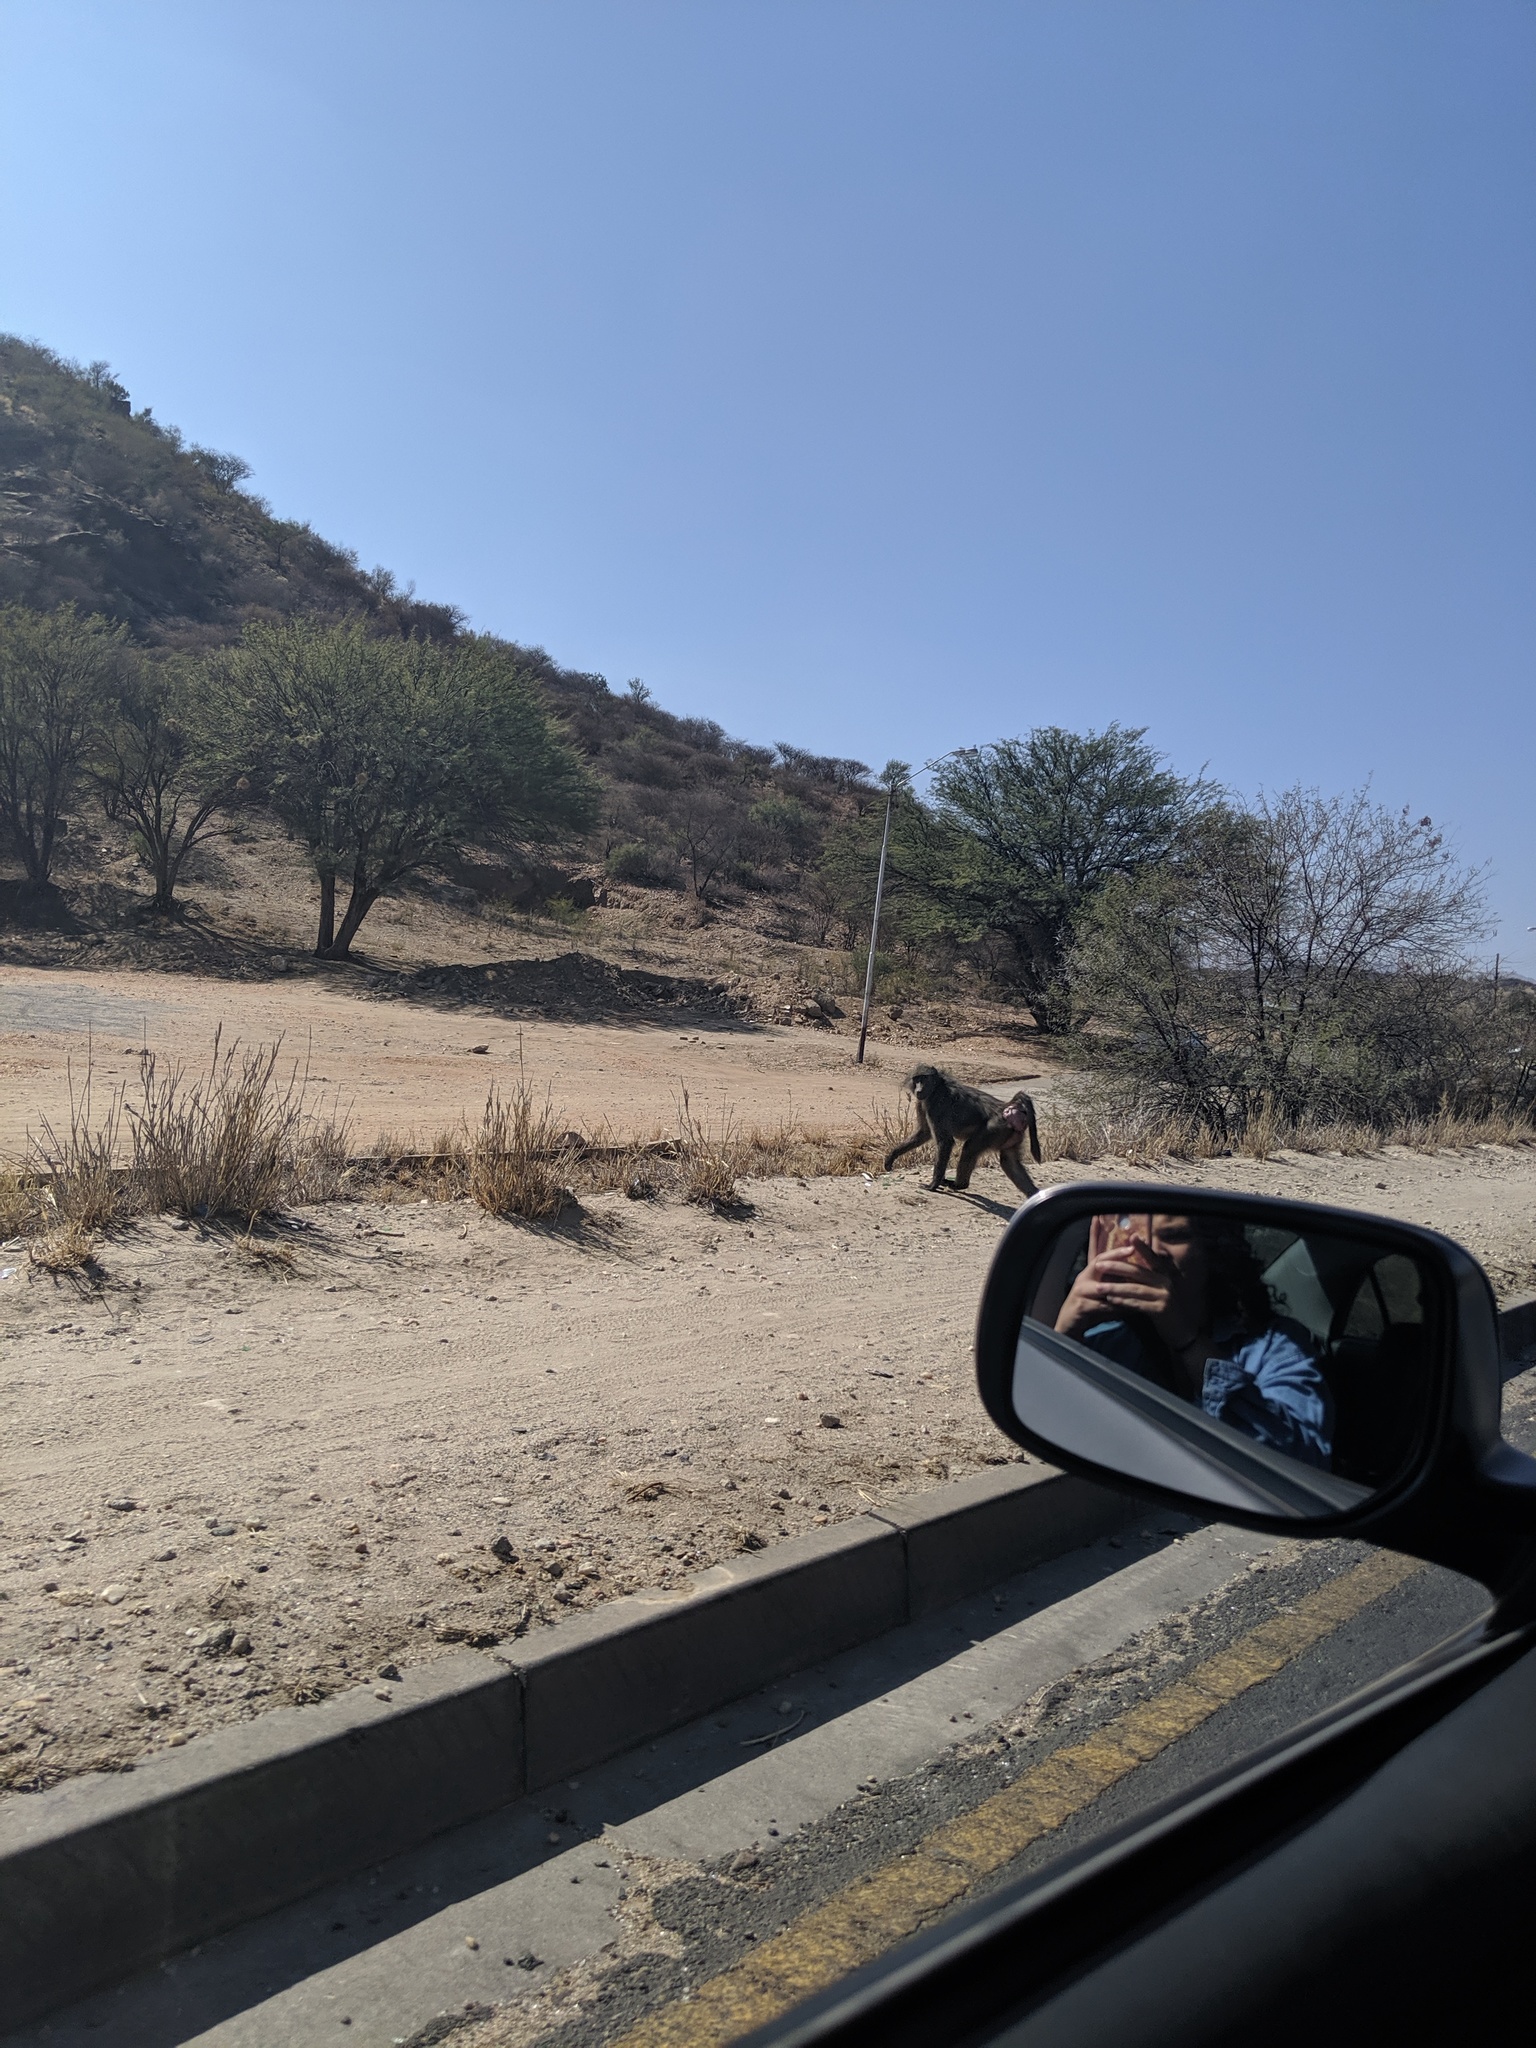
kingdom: Animalia
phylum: Chordata
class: Mammalia
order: Primates
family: Cercopithecidae
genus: Papio
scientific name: Papio ursinus
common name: Chacma baboon
